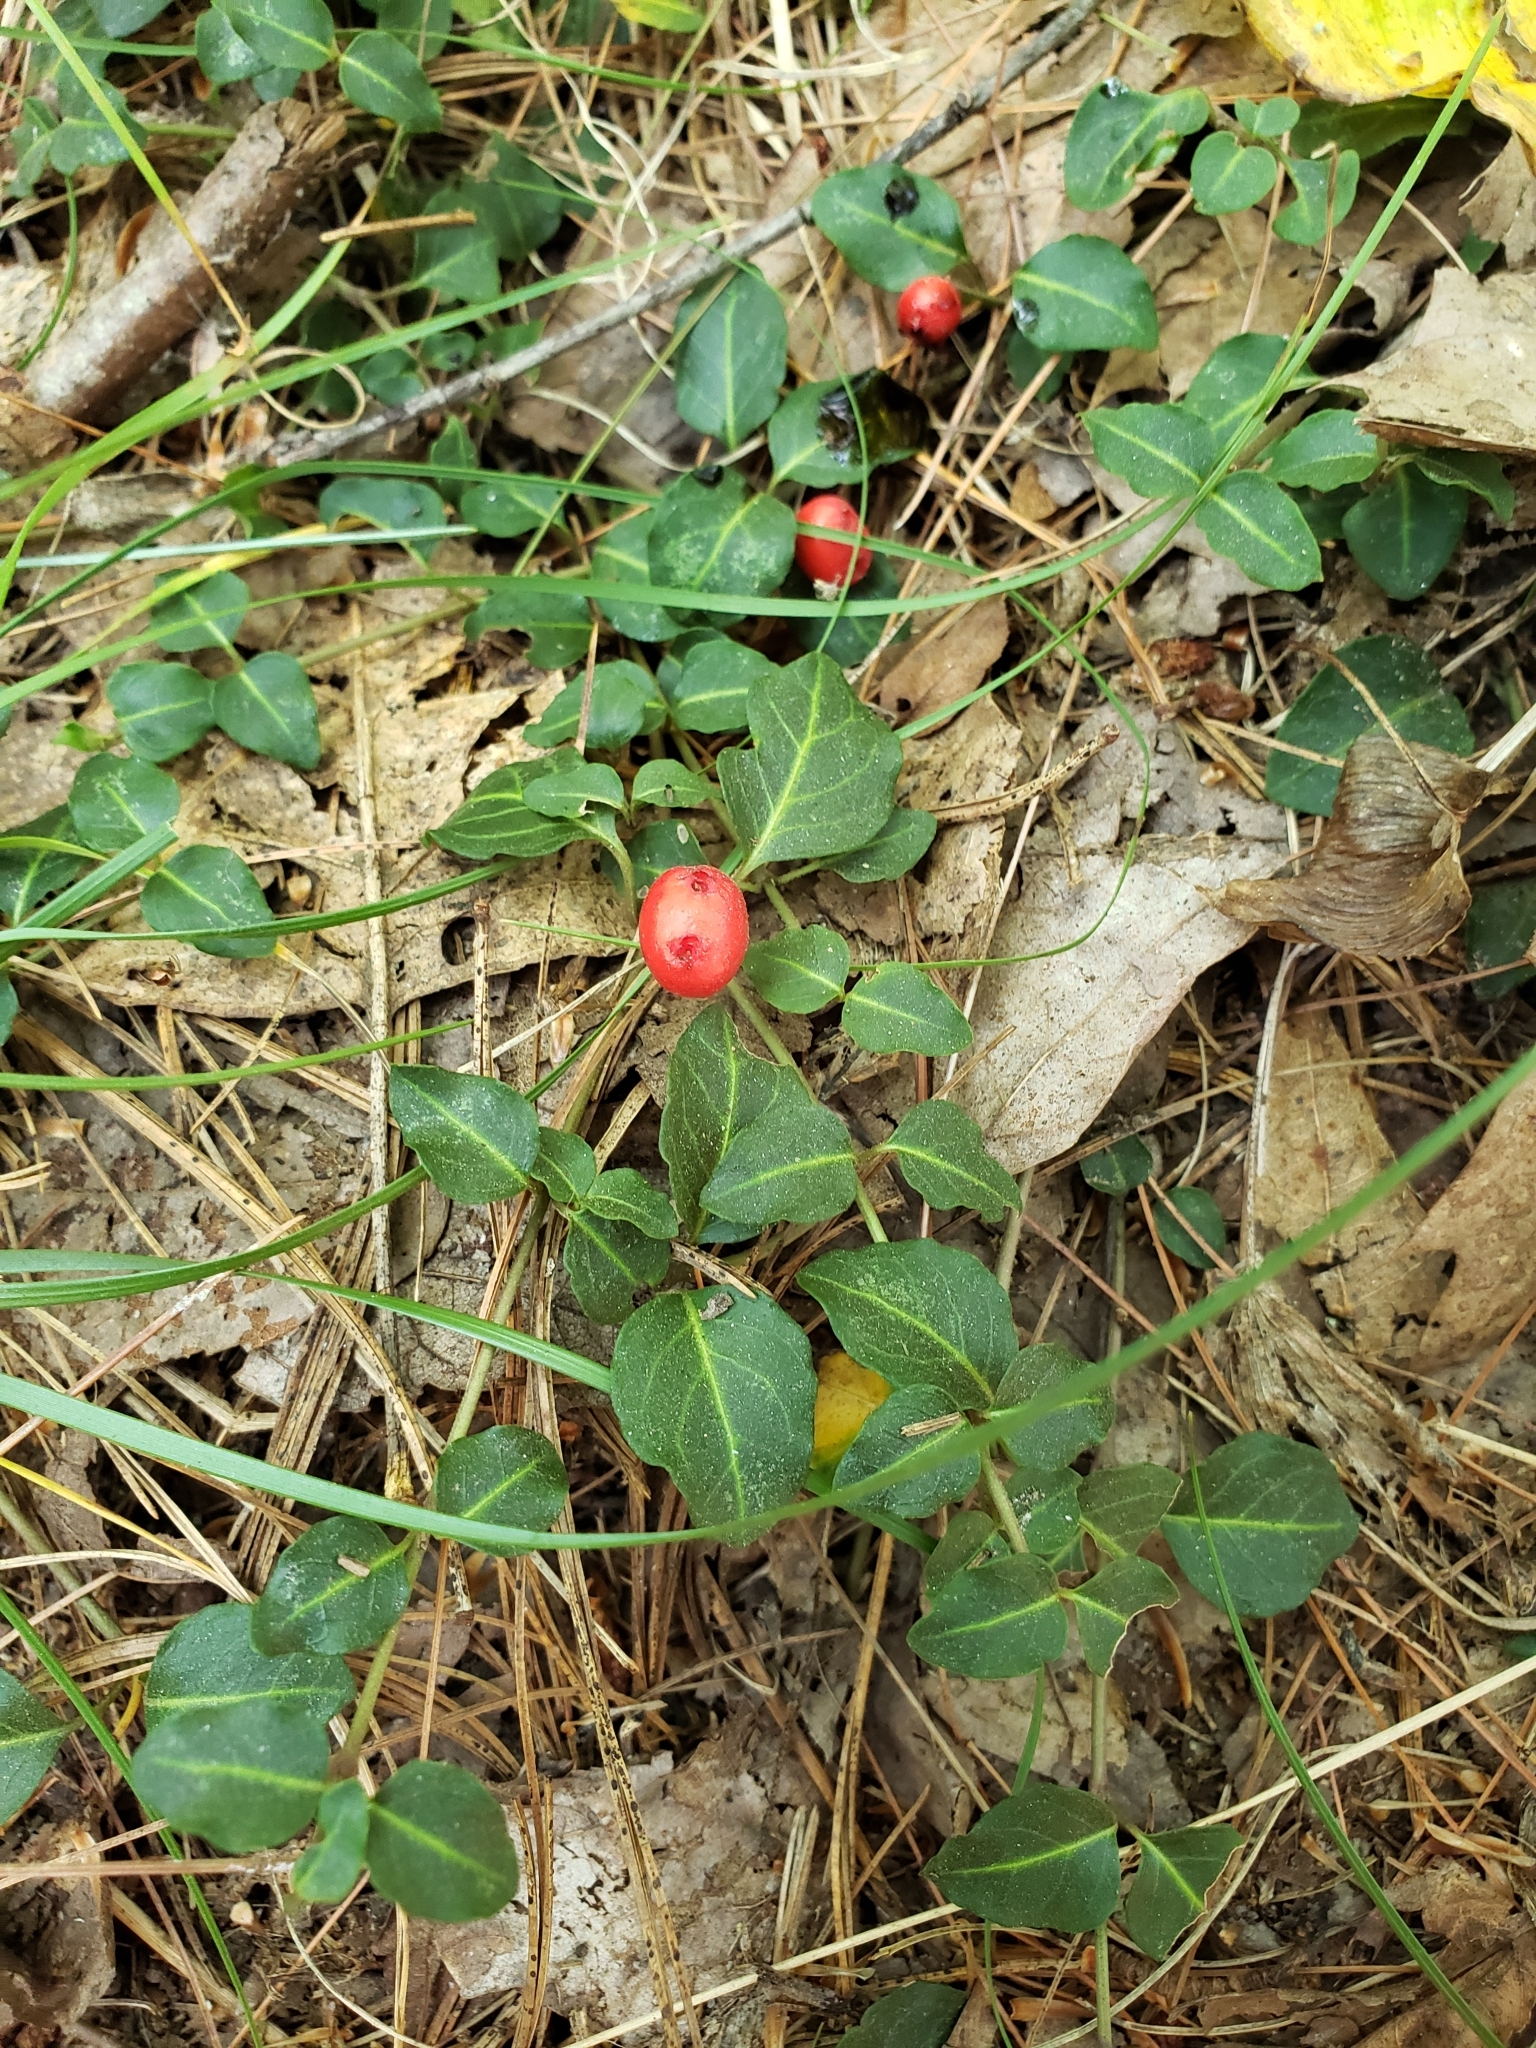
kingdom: Plantae
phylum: Tracheophyta
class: Magnoliopsida
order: Gentianales
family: Rubiaceae
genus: Mitchella
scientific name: Mitchella repens
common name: Partridge-berry
